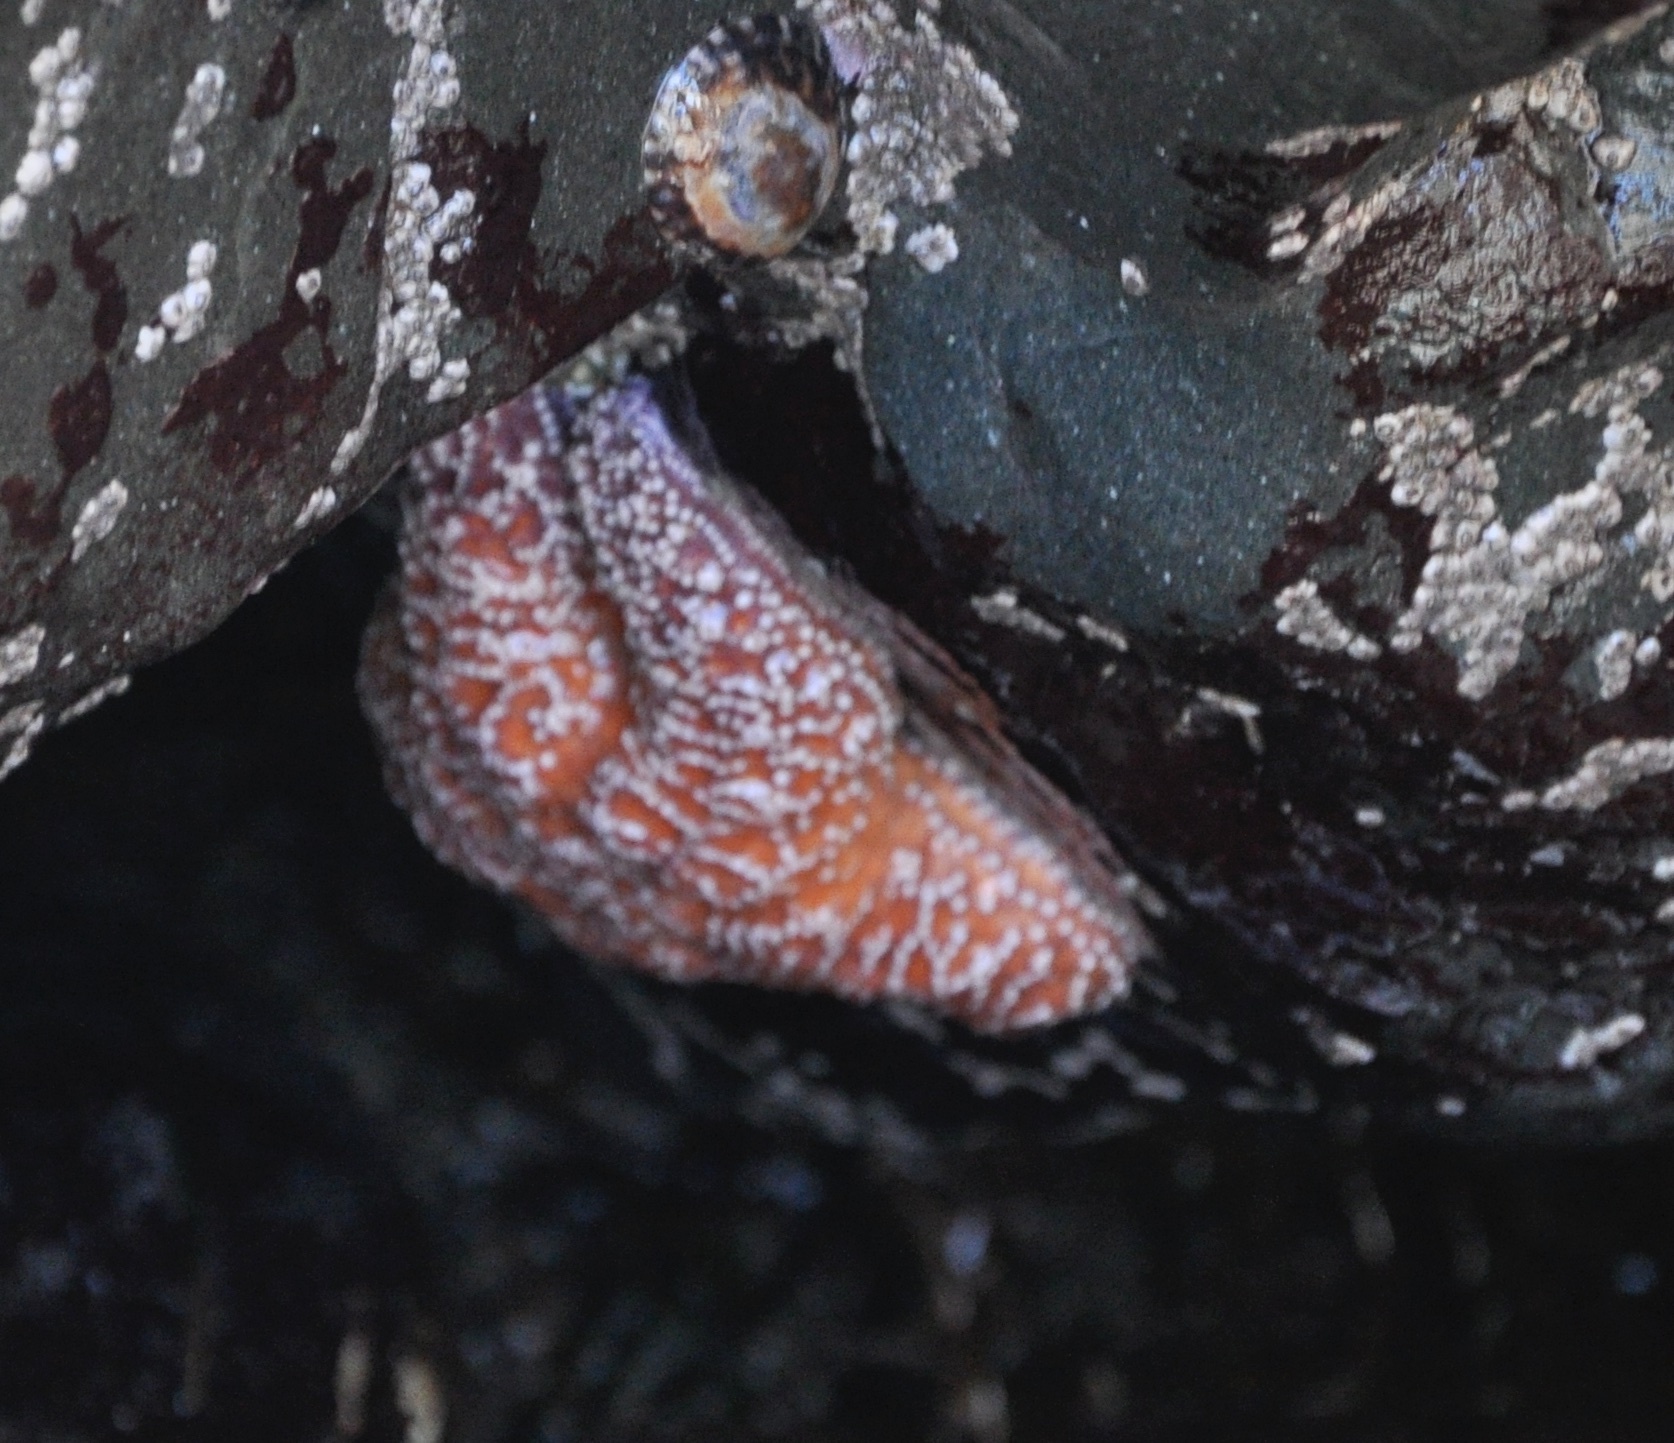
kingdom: Animalia
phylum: Echinodermata
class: Asteroidea
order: Forcipulatida
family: Asteriidae
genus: Pisaster
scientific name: Pisaster ochraceus
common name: Ochre stars
